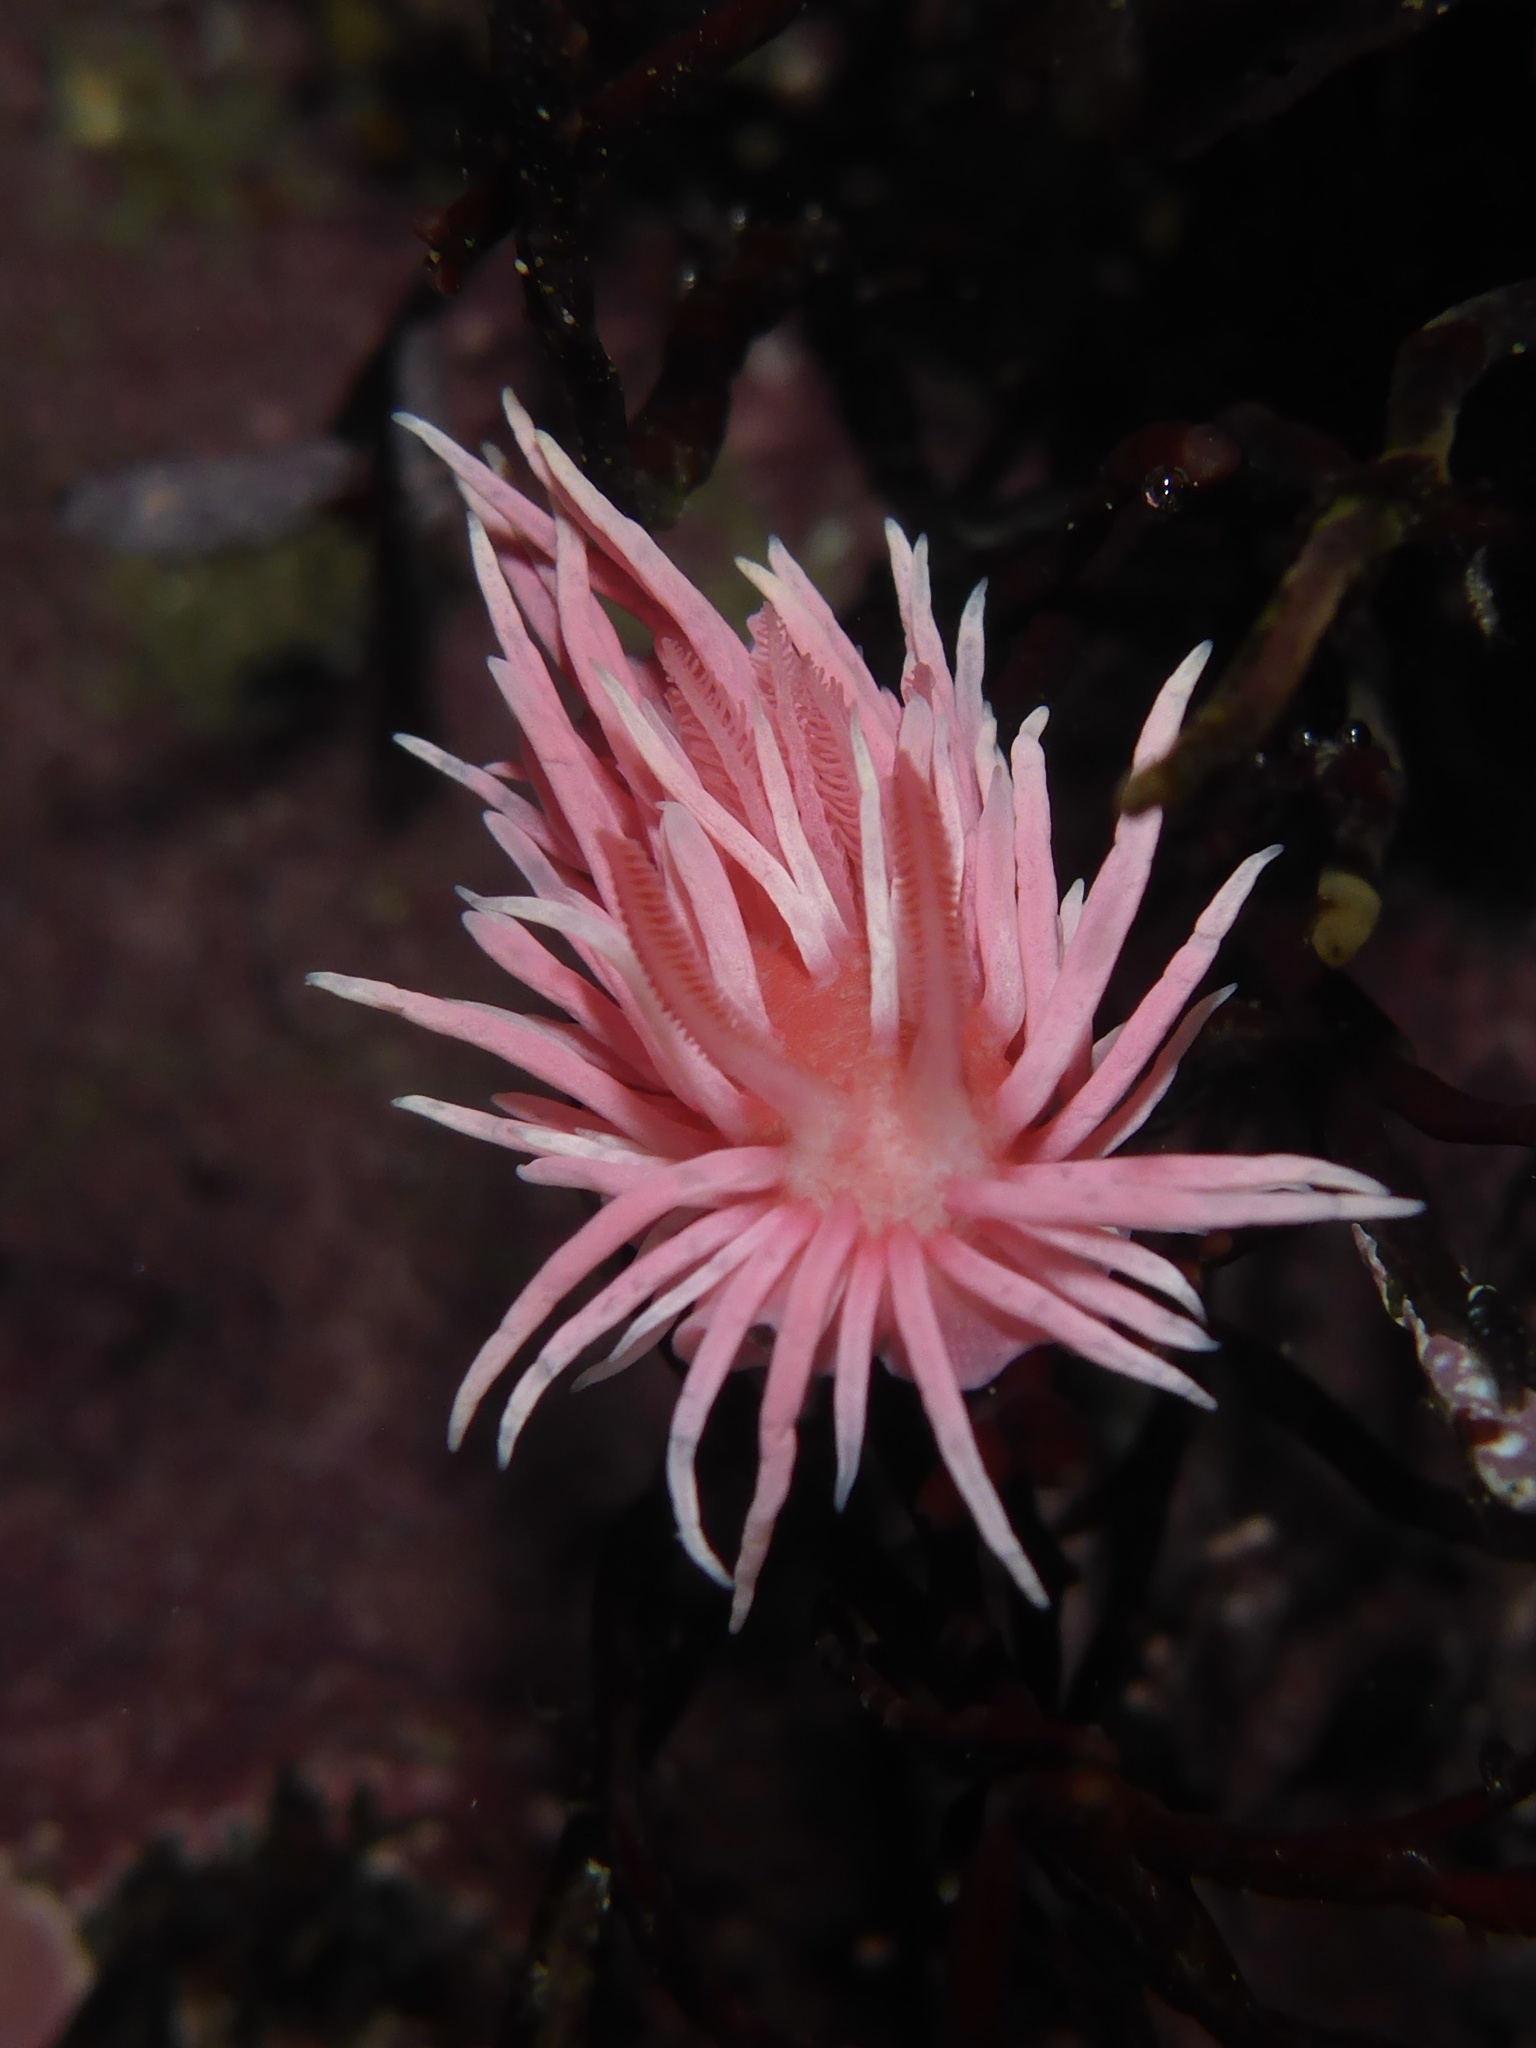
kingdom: Animalia
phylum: Mollusca
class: Gastropoda
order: Nudibranchia
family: Goniodorididae
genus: Okenia
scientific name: Okenia
